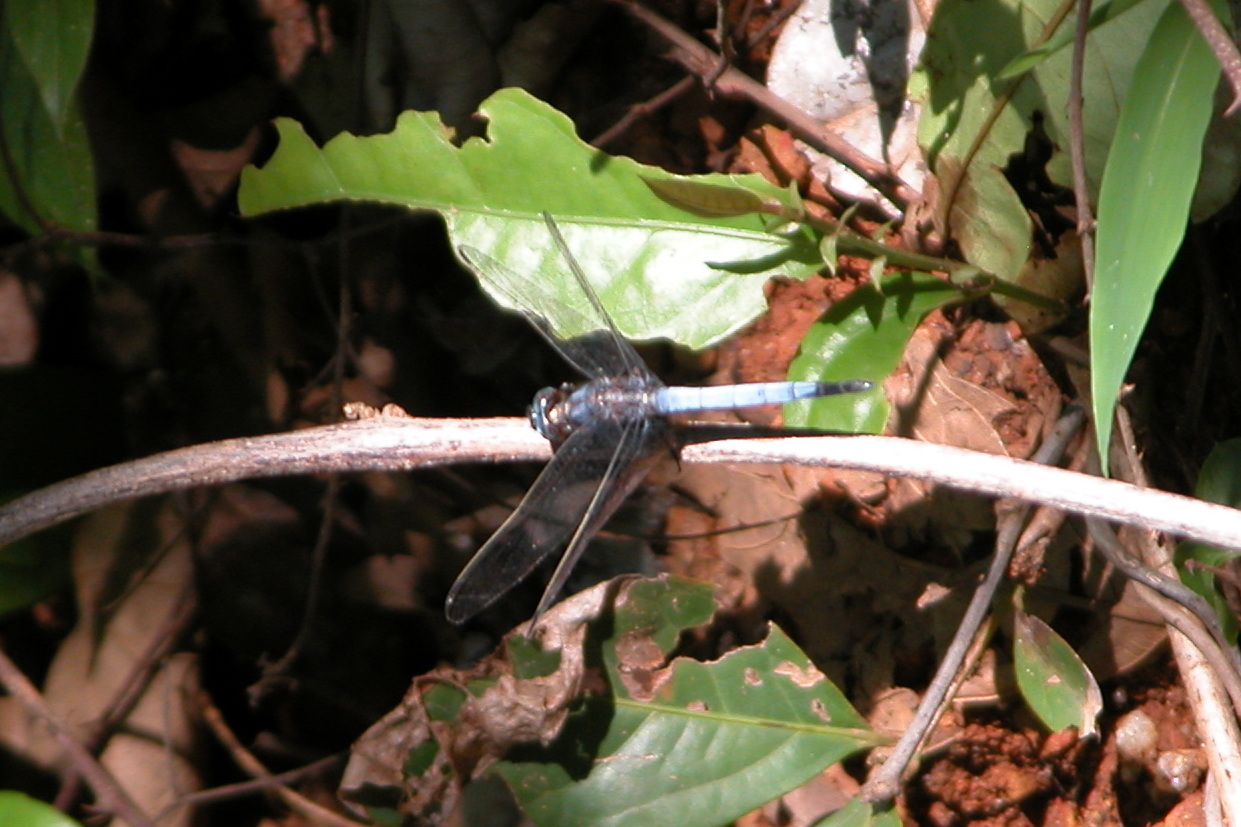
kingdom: Animalia
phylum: Arthropoda
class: Insecta
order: Odonata
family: Libellulidae
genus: Orthetrum
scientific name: Orthetrum glaucum
